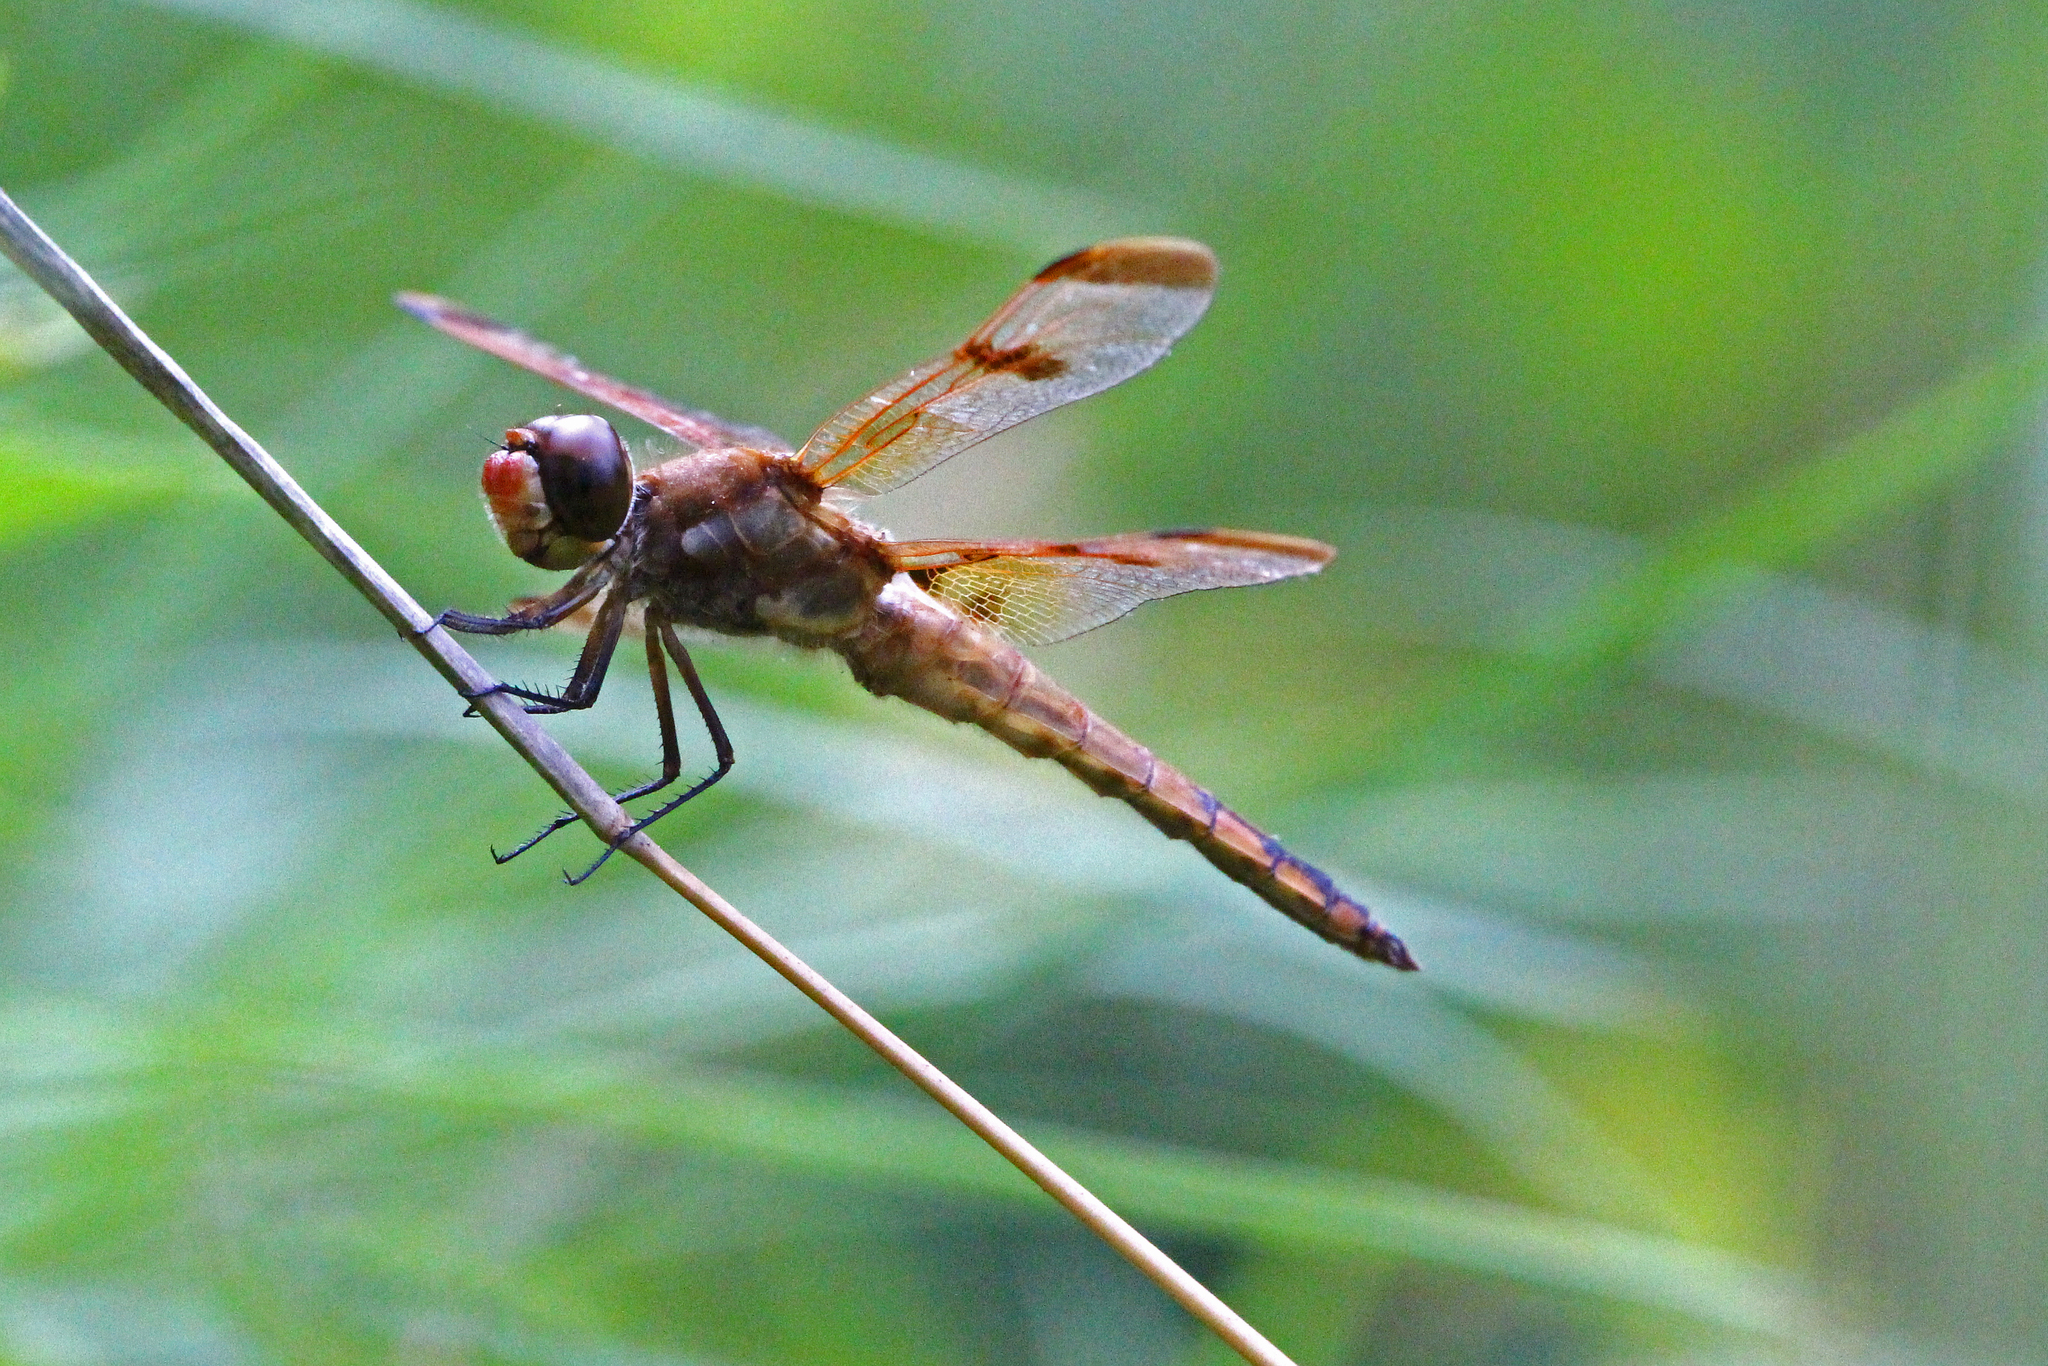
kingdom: Animalia
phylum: Arthropoda
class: Insecta
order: Odonata
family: Libellulidae
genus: Libellula
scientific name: Libellula semifasciata
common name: Painted skimmer
